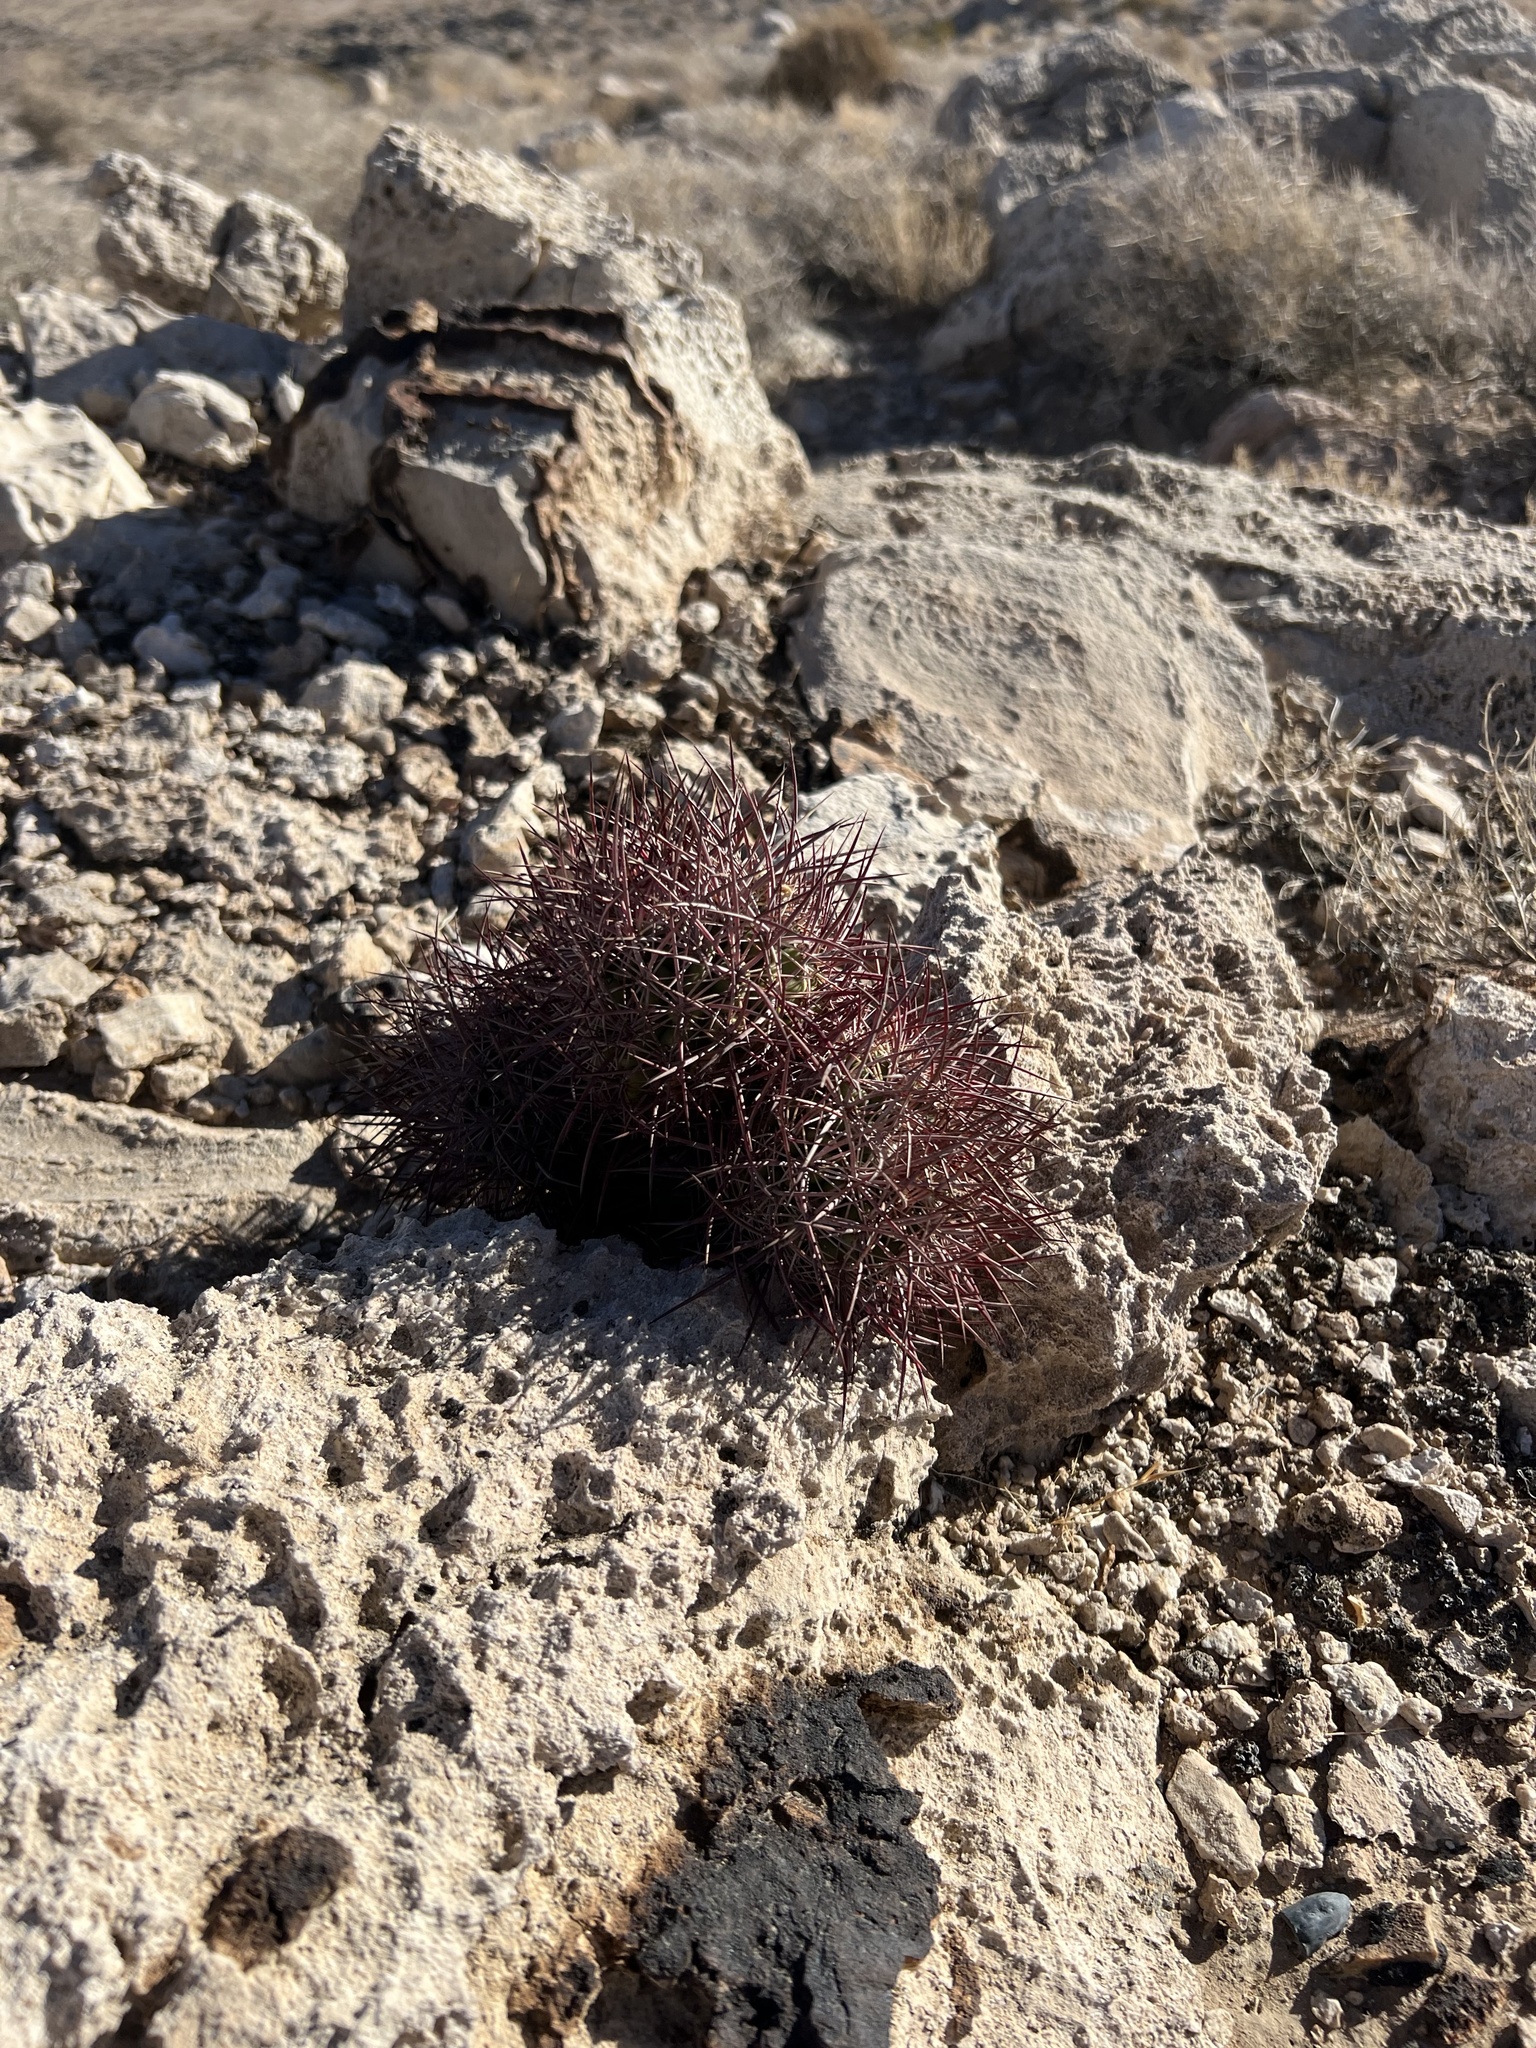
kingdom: Plantae
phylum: Tracheophyta
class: Magnoliopsida
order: Caryophyllales
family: Cactaceae
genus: Sclerocactus
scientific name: Sclerocactus johnsonii
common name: Eight-spine fishhook cactus
